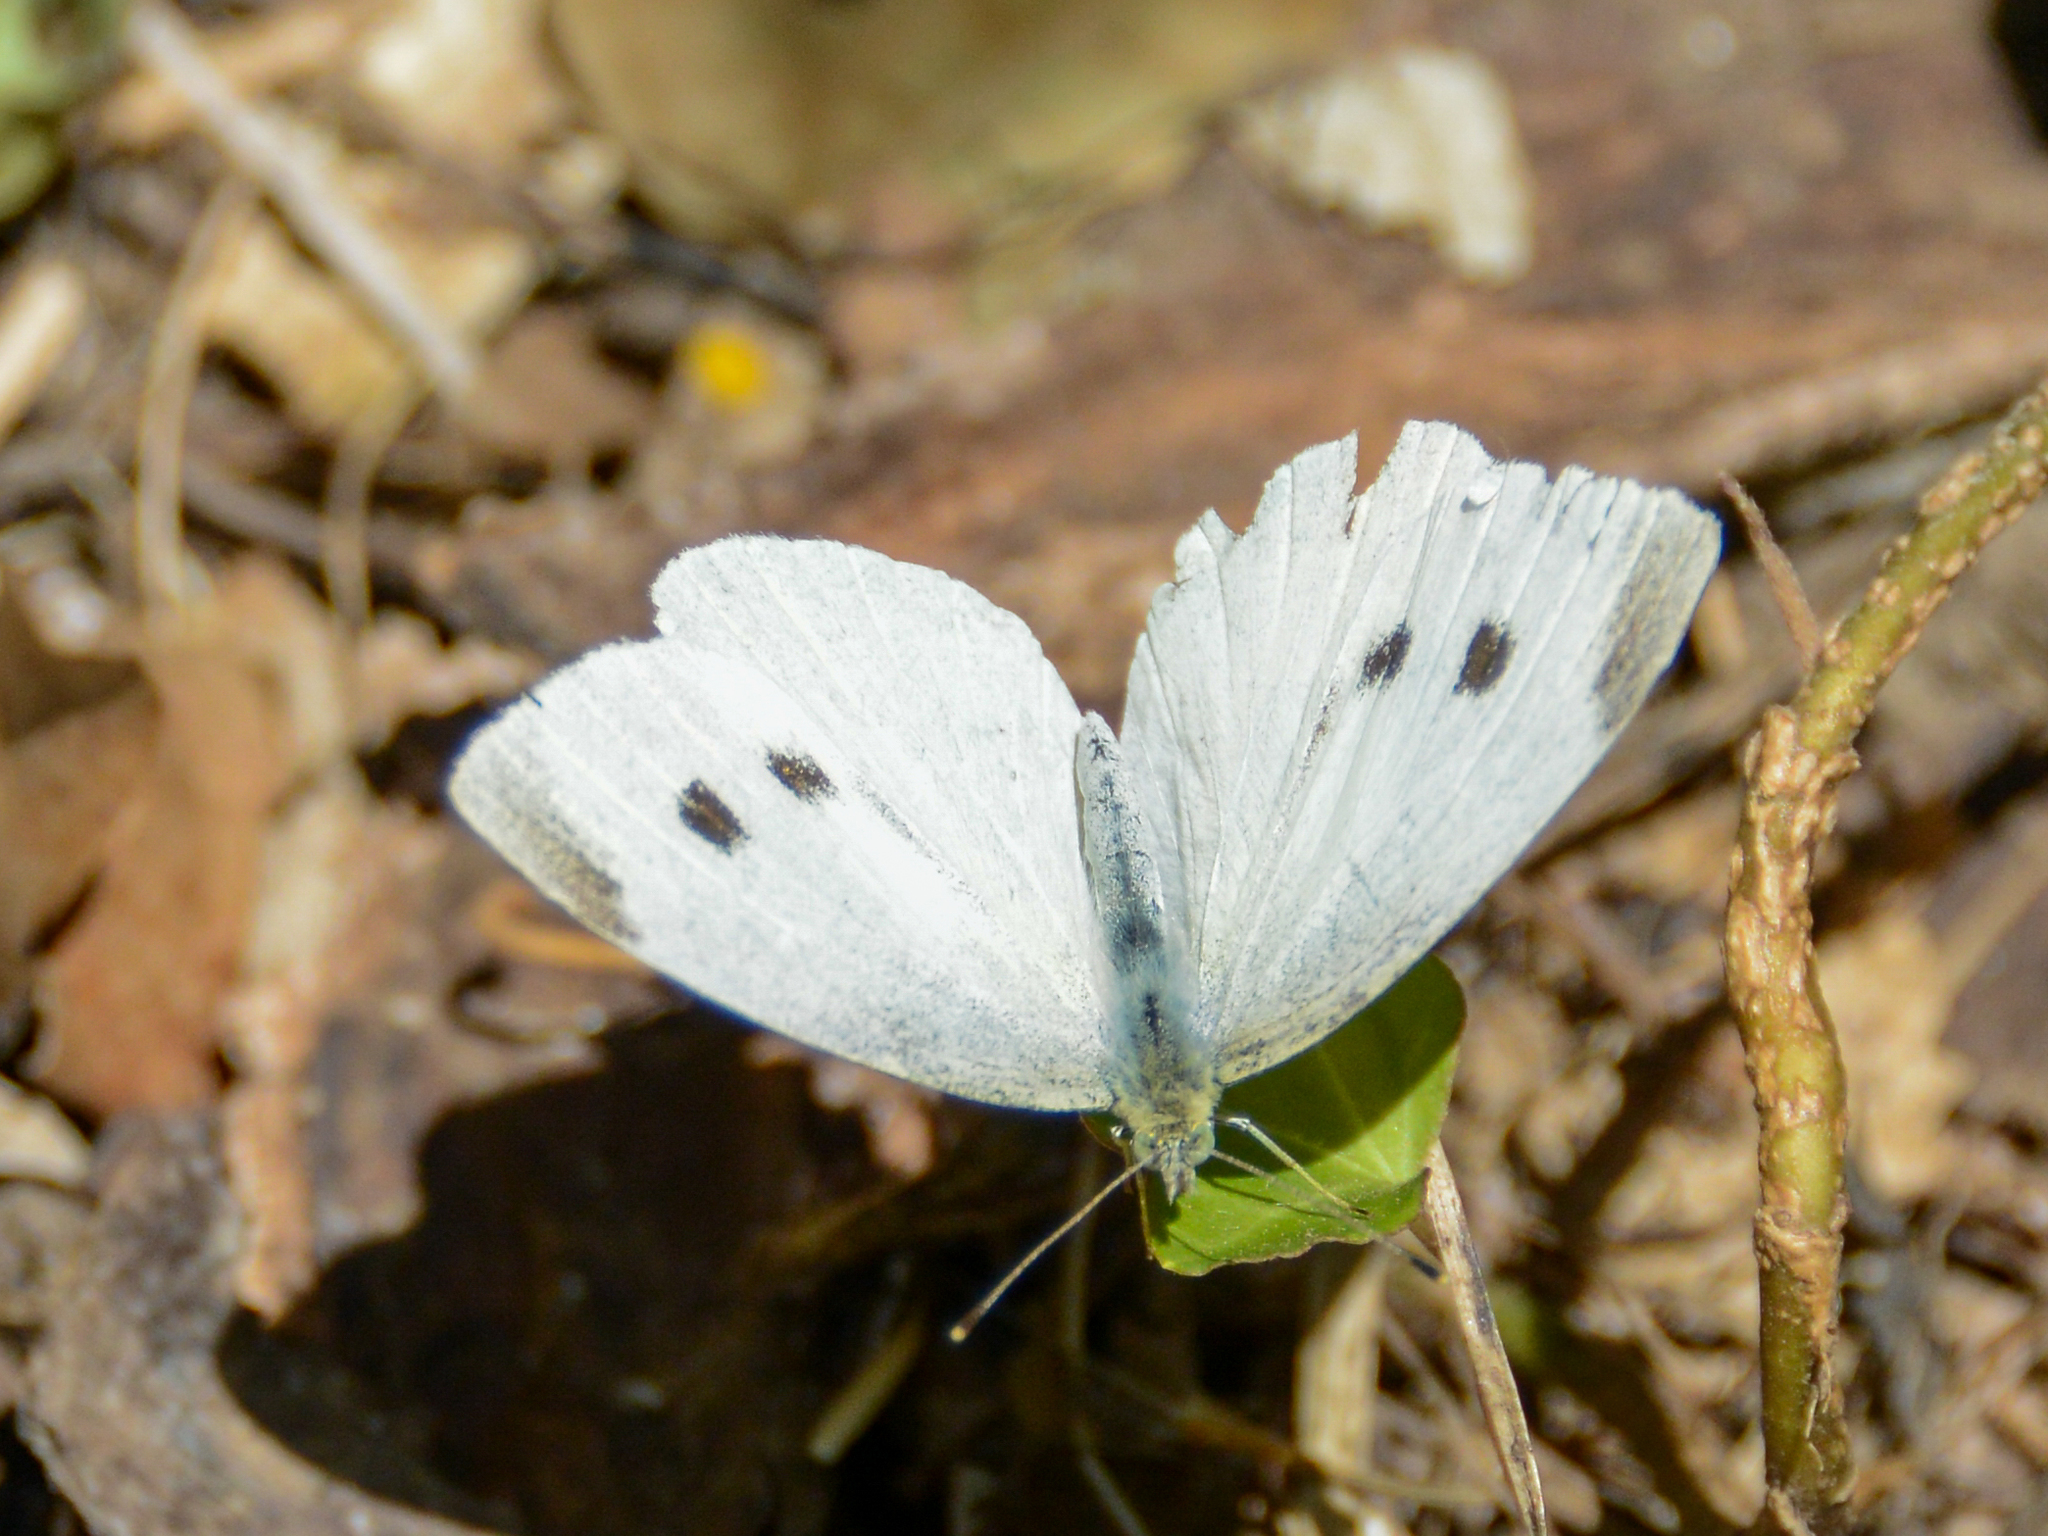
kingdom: Animalia
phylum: Arthropoda
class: Insecta
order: Lepidoptera
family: Pieridae
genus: Pieris
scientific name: Pieris rapae
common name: Small white
